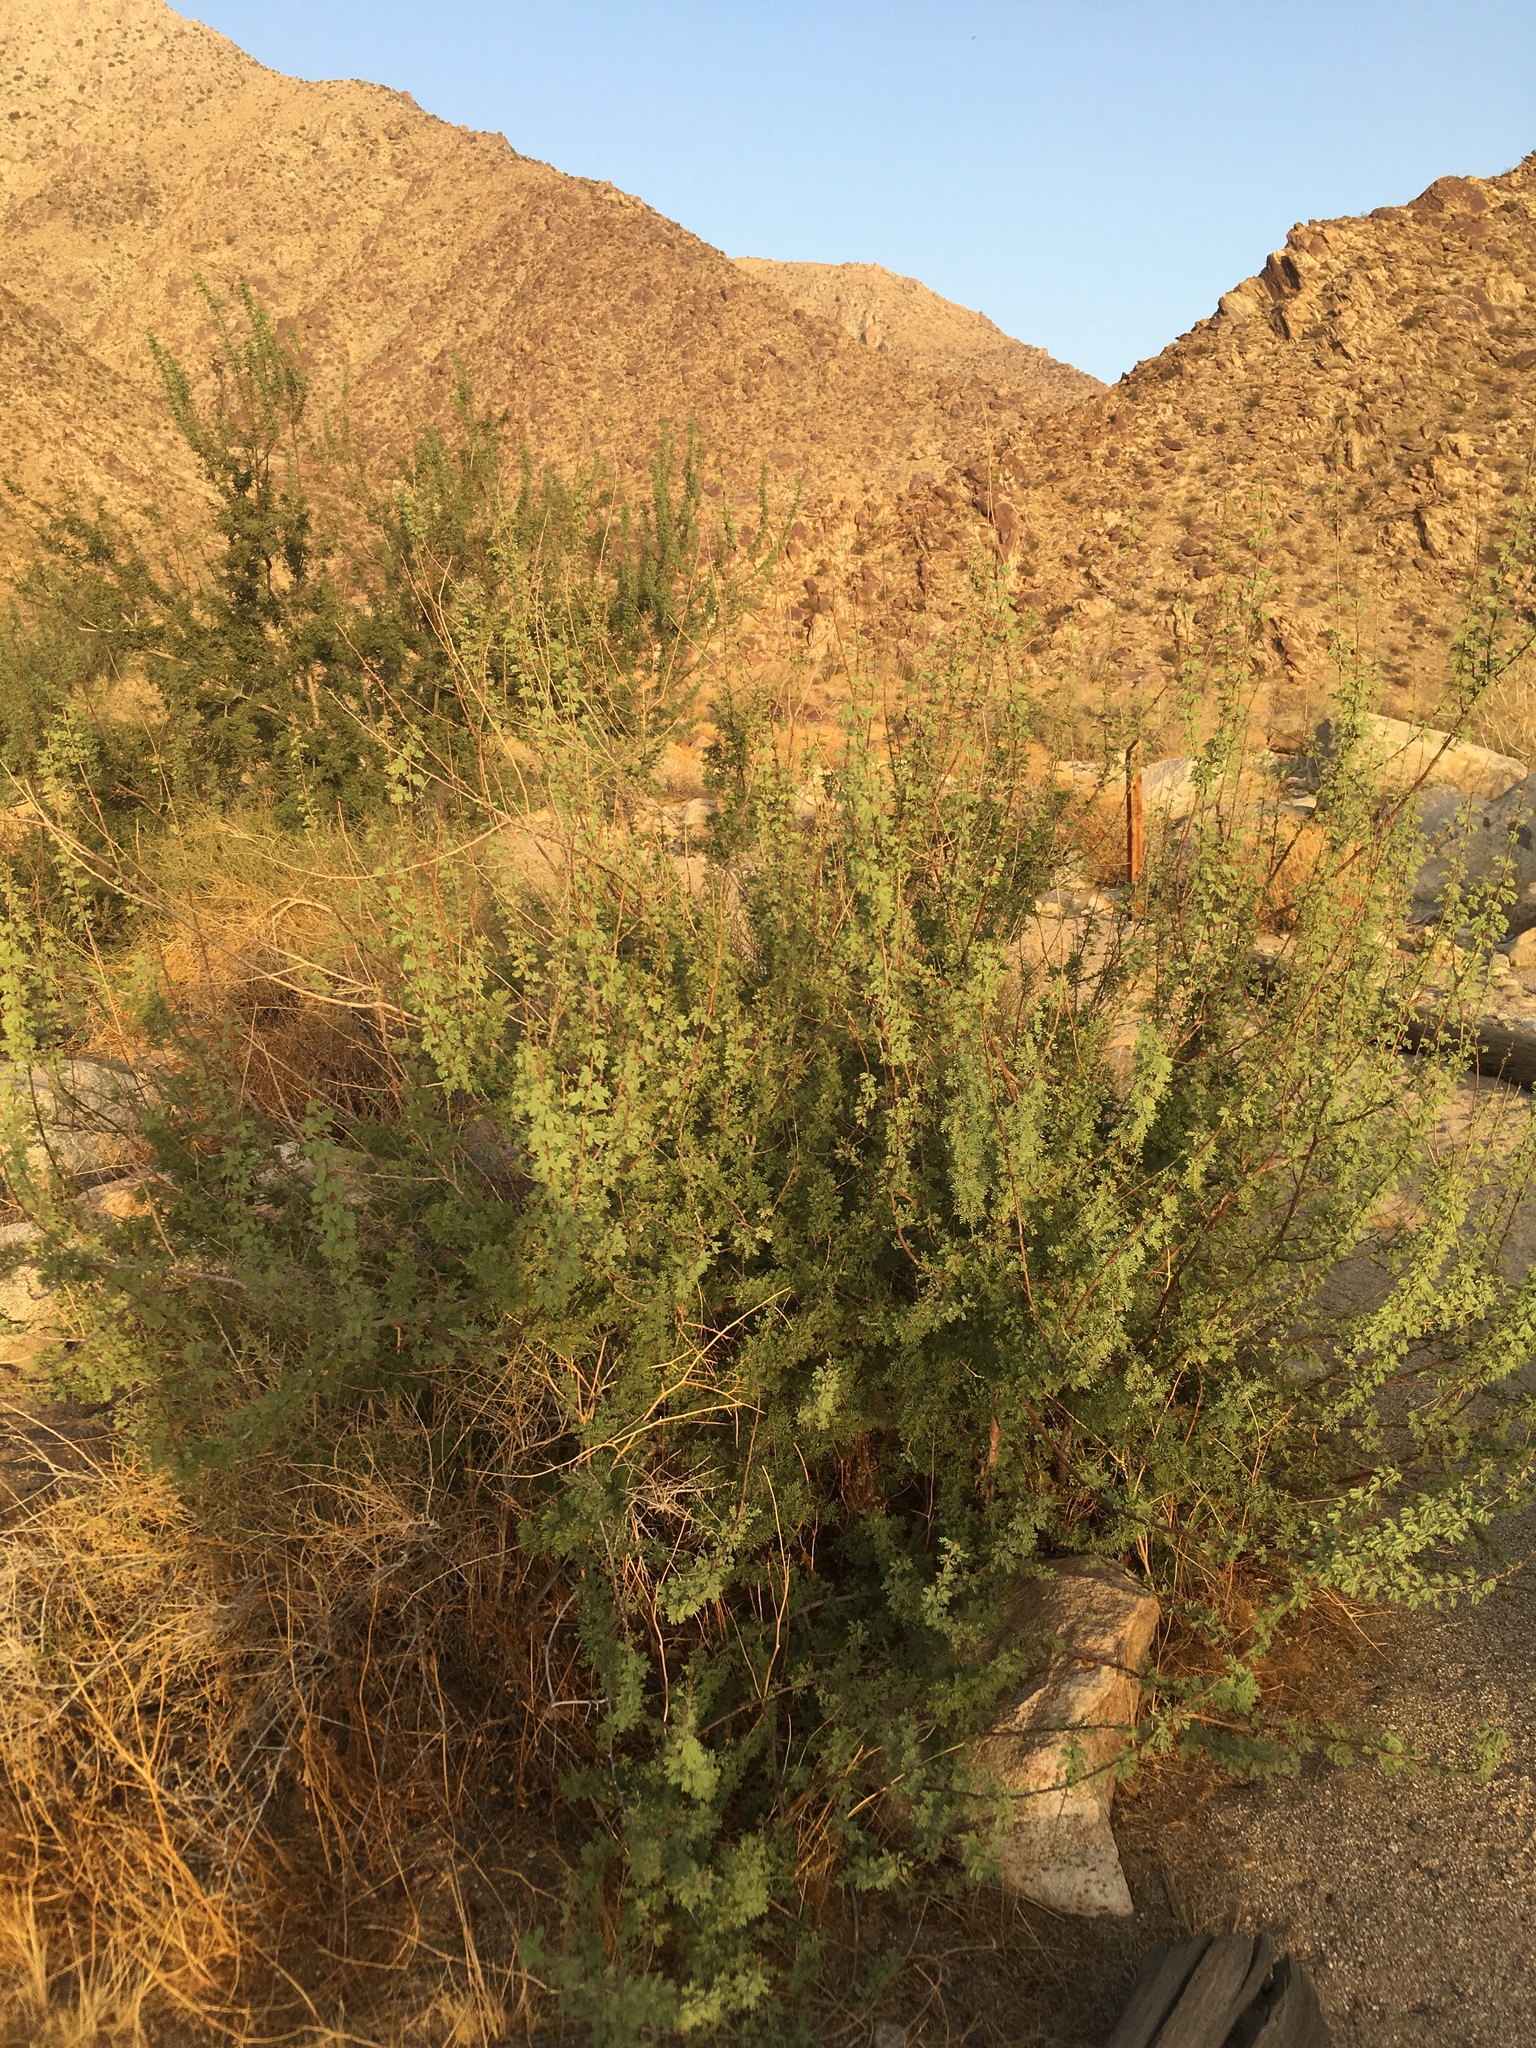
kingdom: Plantae
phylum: Tracheophyta
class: Magnoliopsida
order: Fabales
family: Fabaceae
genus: Senegalia
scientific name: Senegalia greggii
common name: Texas-mimosa
